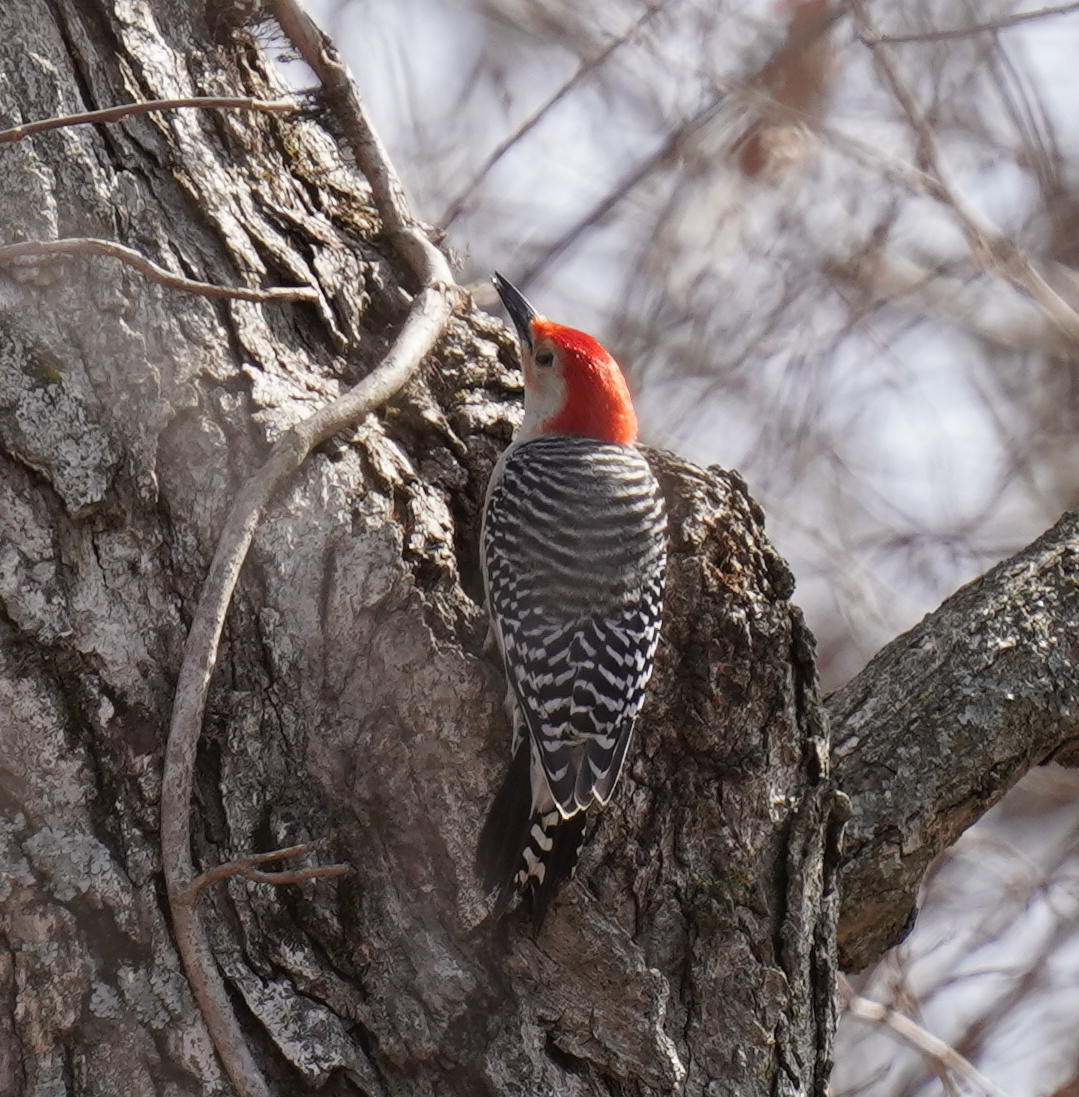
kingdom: Animalia
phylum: Chordata
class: Aves
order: Piciformes
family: Picidae
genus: Melanerpes
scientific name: Melanerpes carolinus
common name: Red-bellied woodpecker
